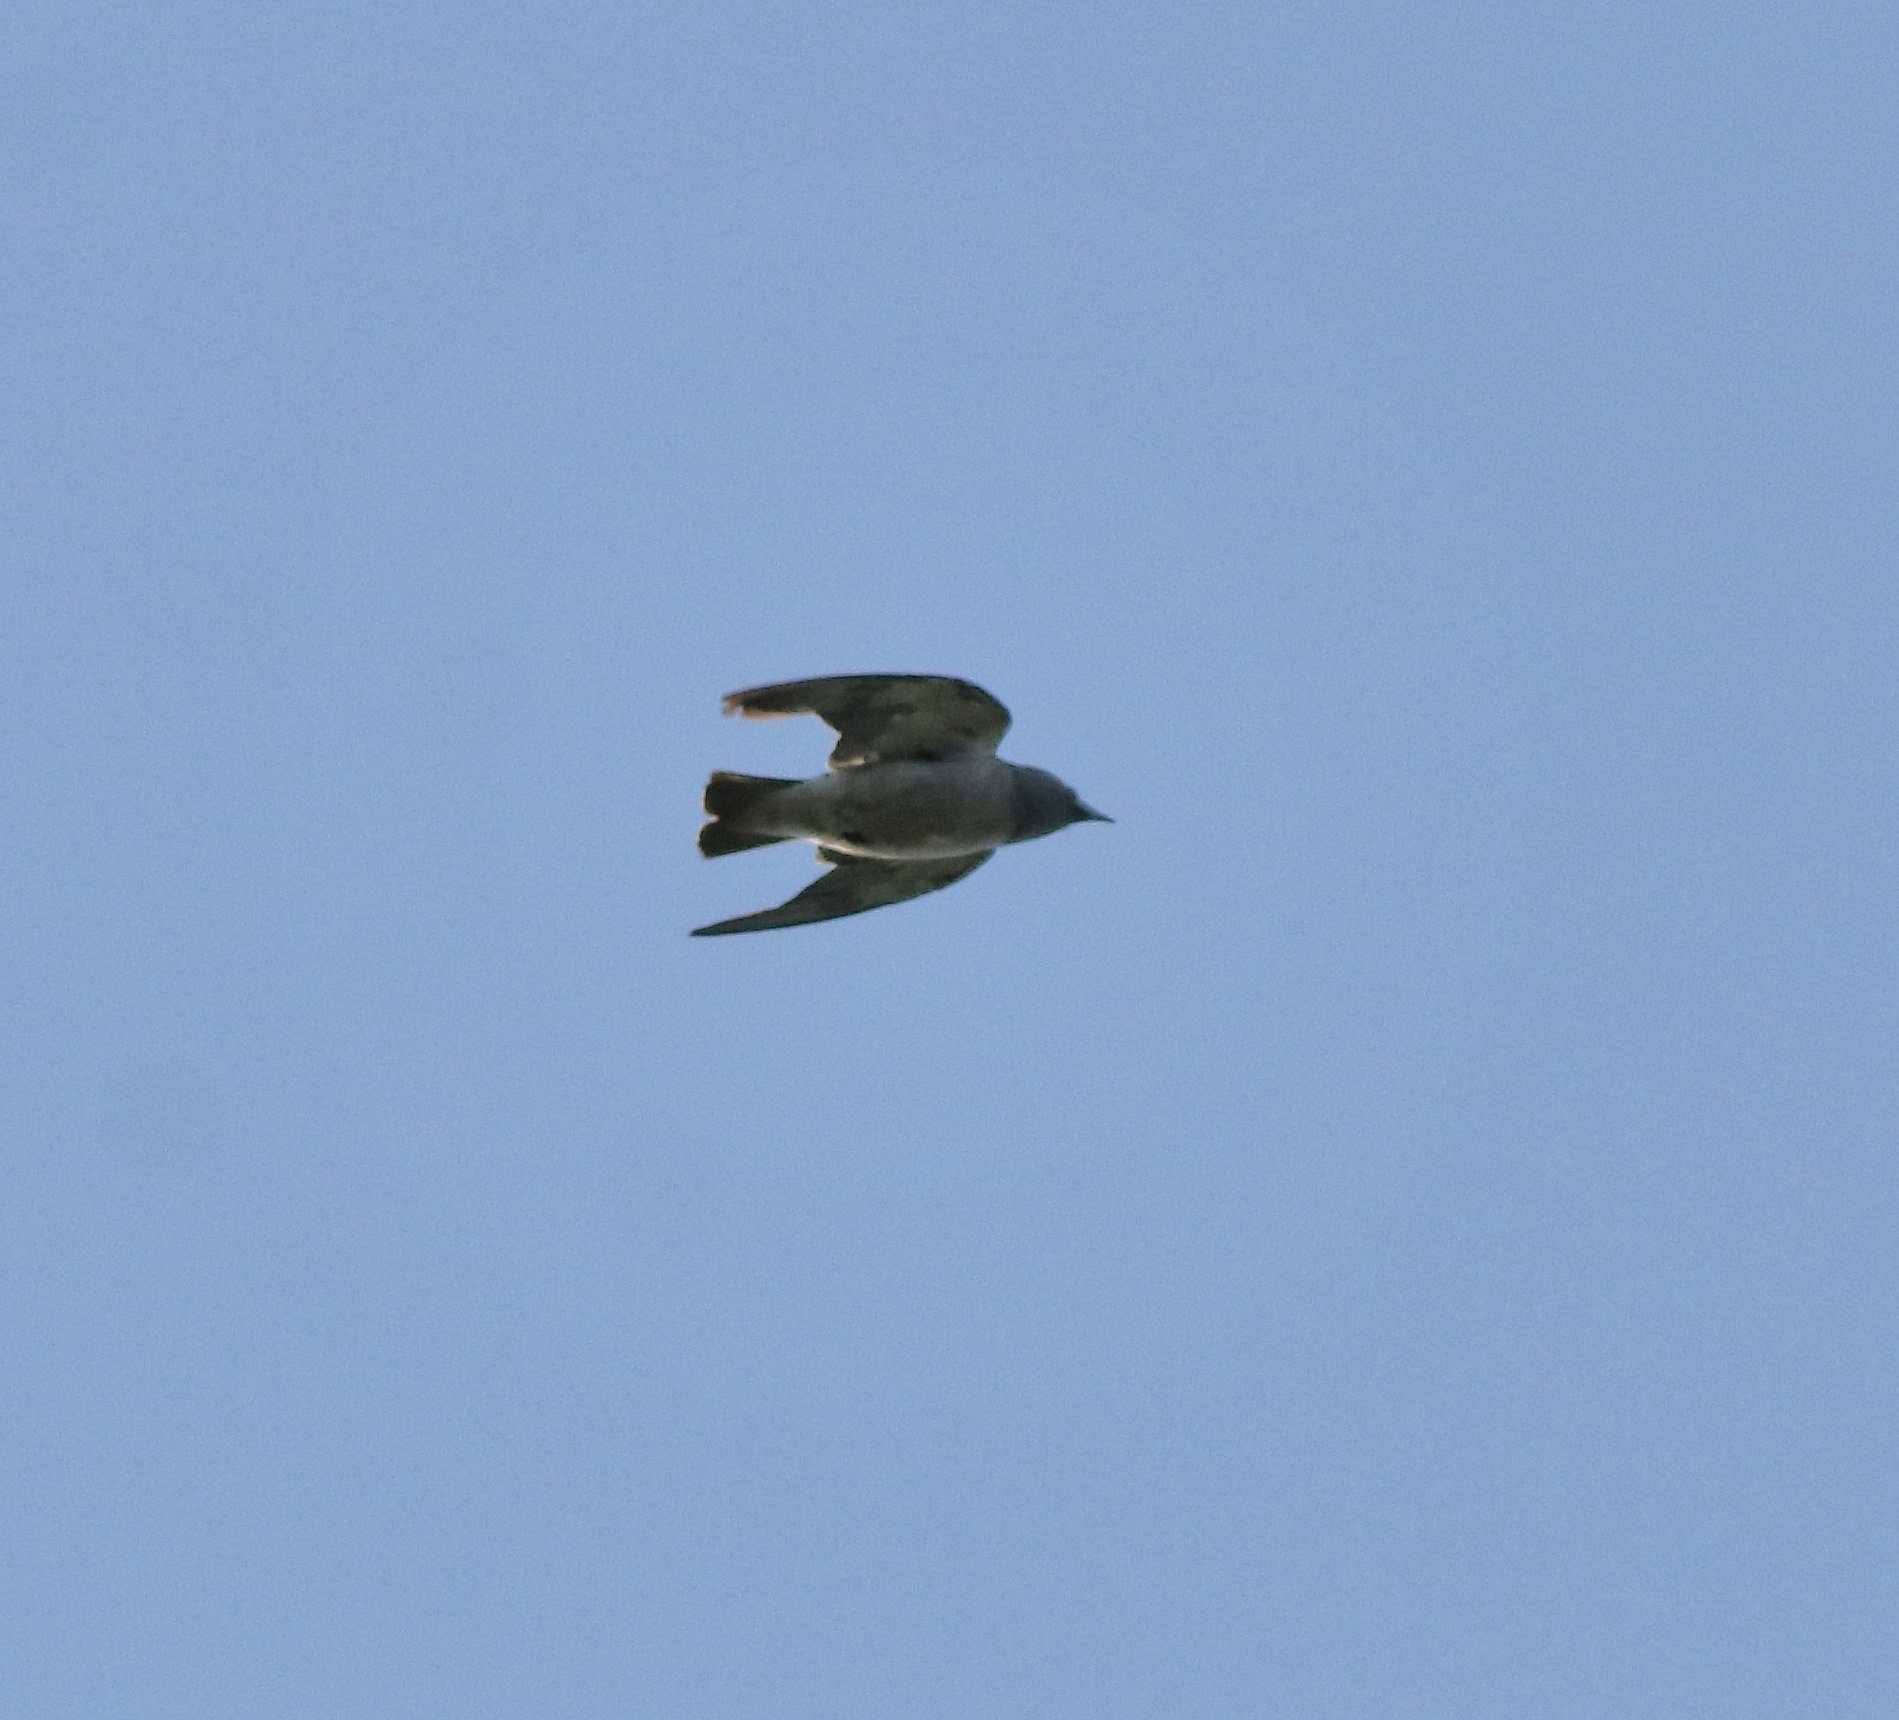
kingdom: Animalia
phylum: Chordata
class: Aves
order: Passeriformes
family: Artamidae
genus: Artamus
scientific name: Artamus fuscus
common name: Ashy woodswallow
